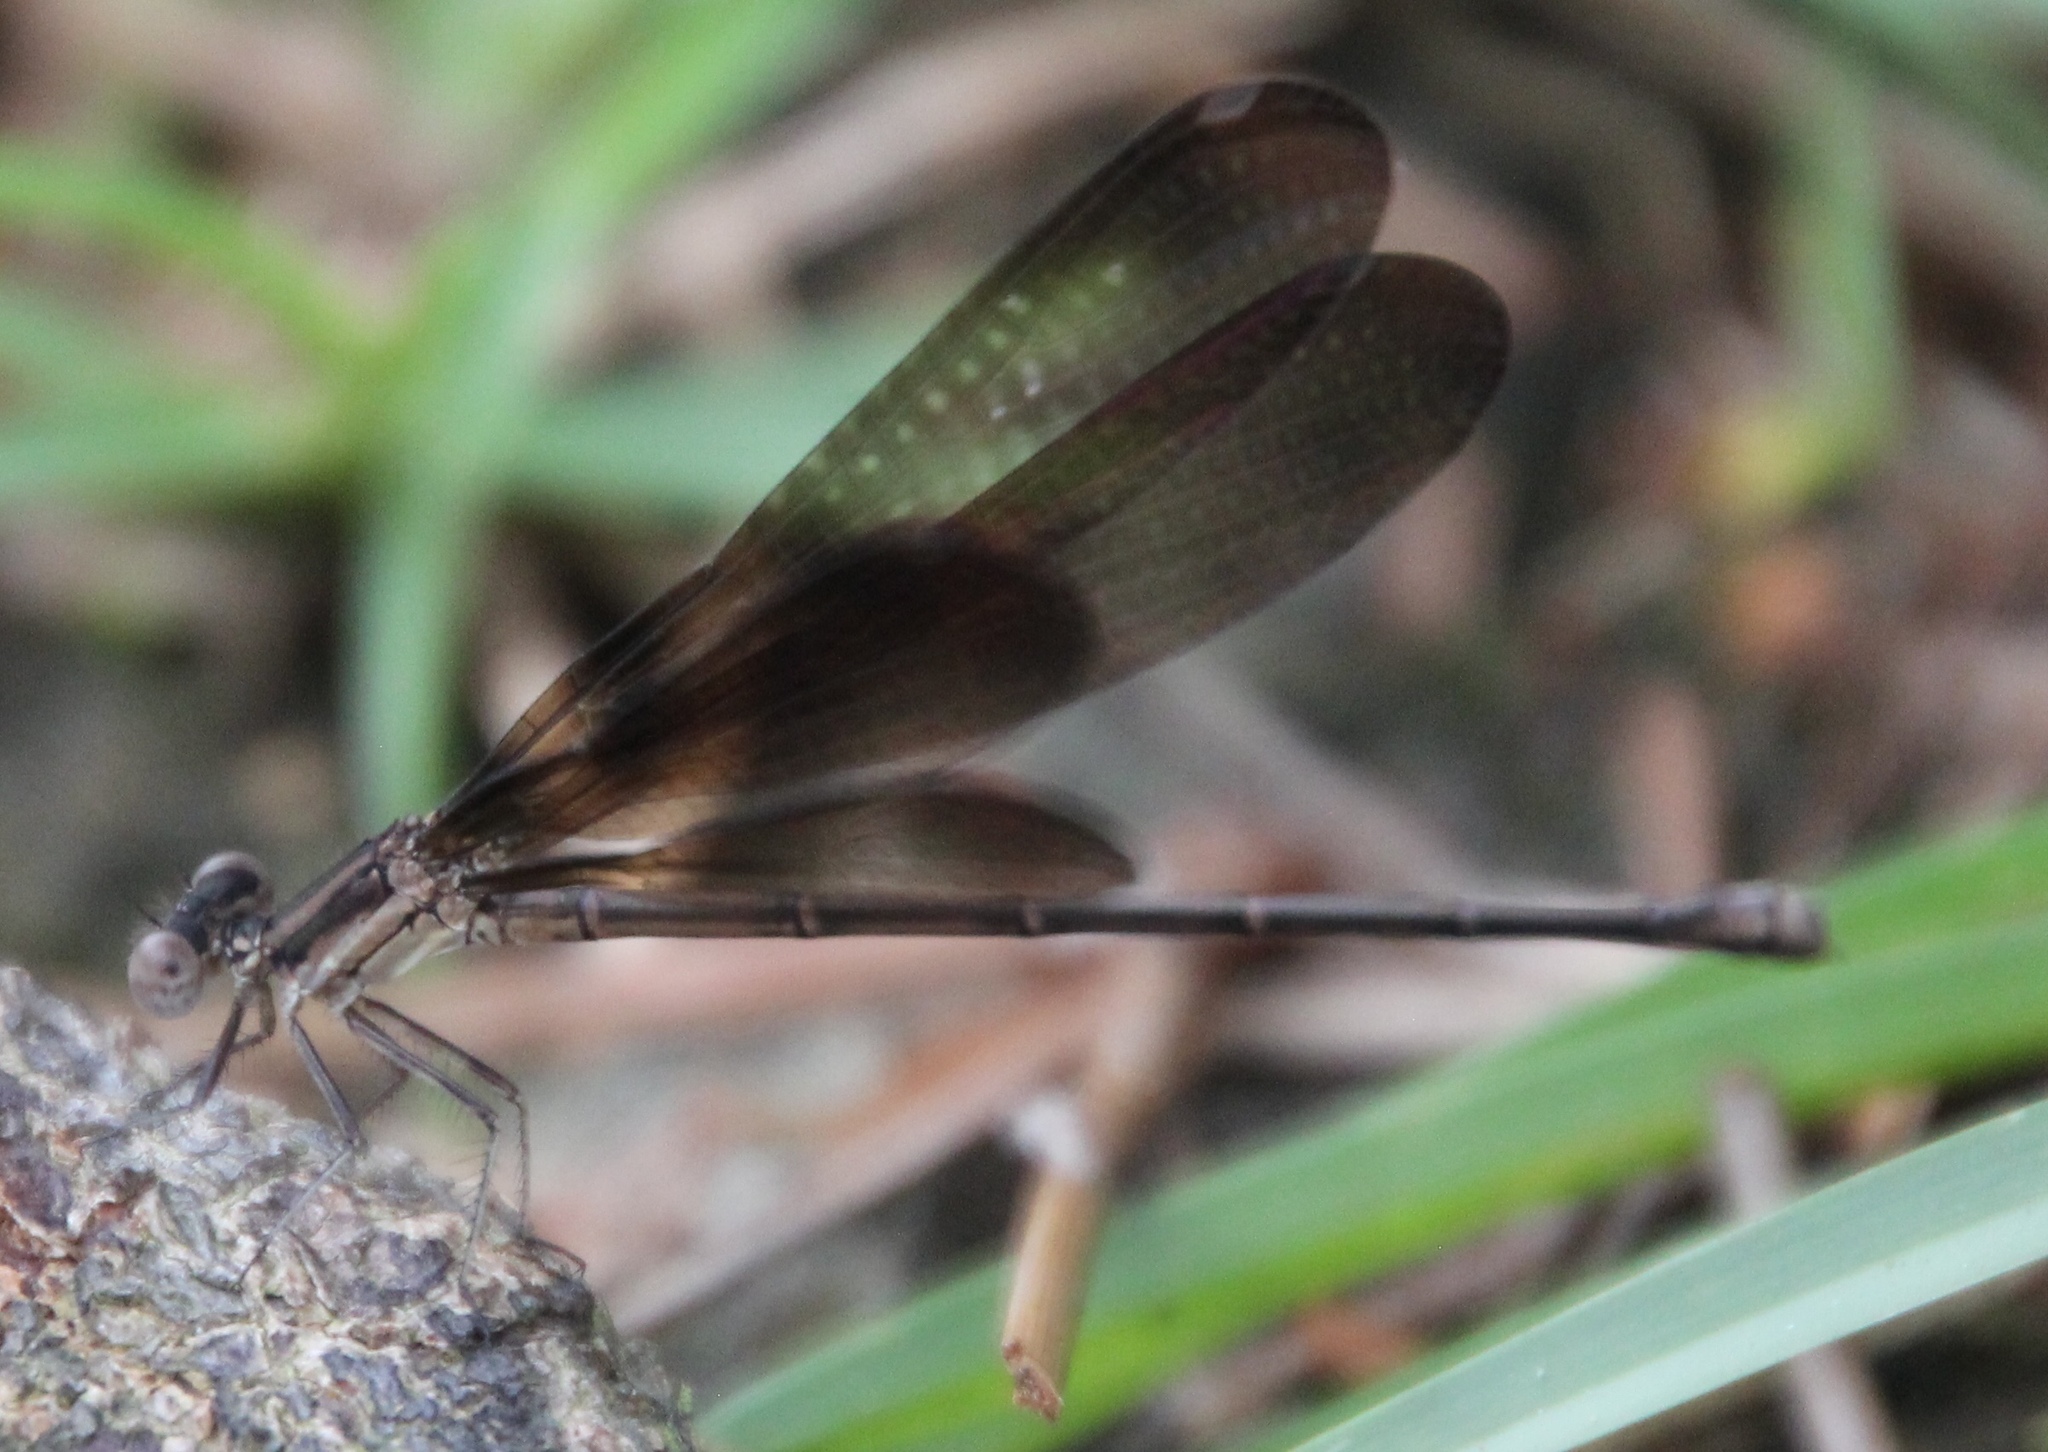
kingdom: Animalia
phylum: Arthropoda
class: Insecta
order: Odonata
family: Coenagrionidae
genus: Argia
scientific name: Argia fumipennis
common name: Variable dancer
